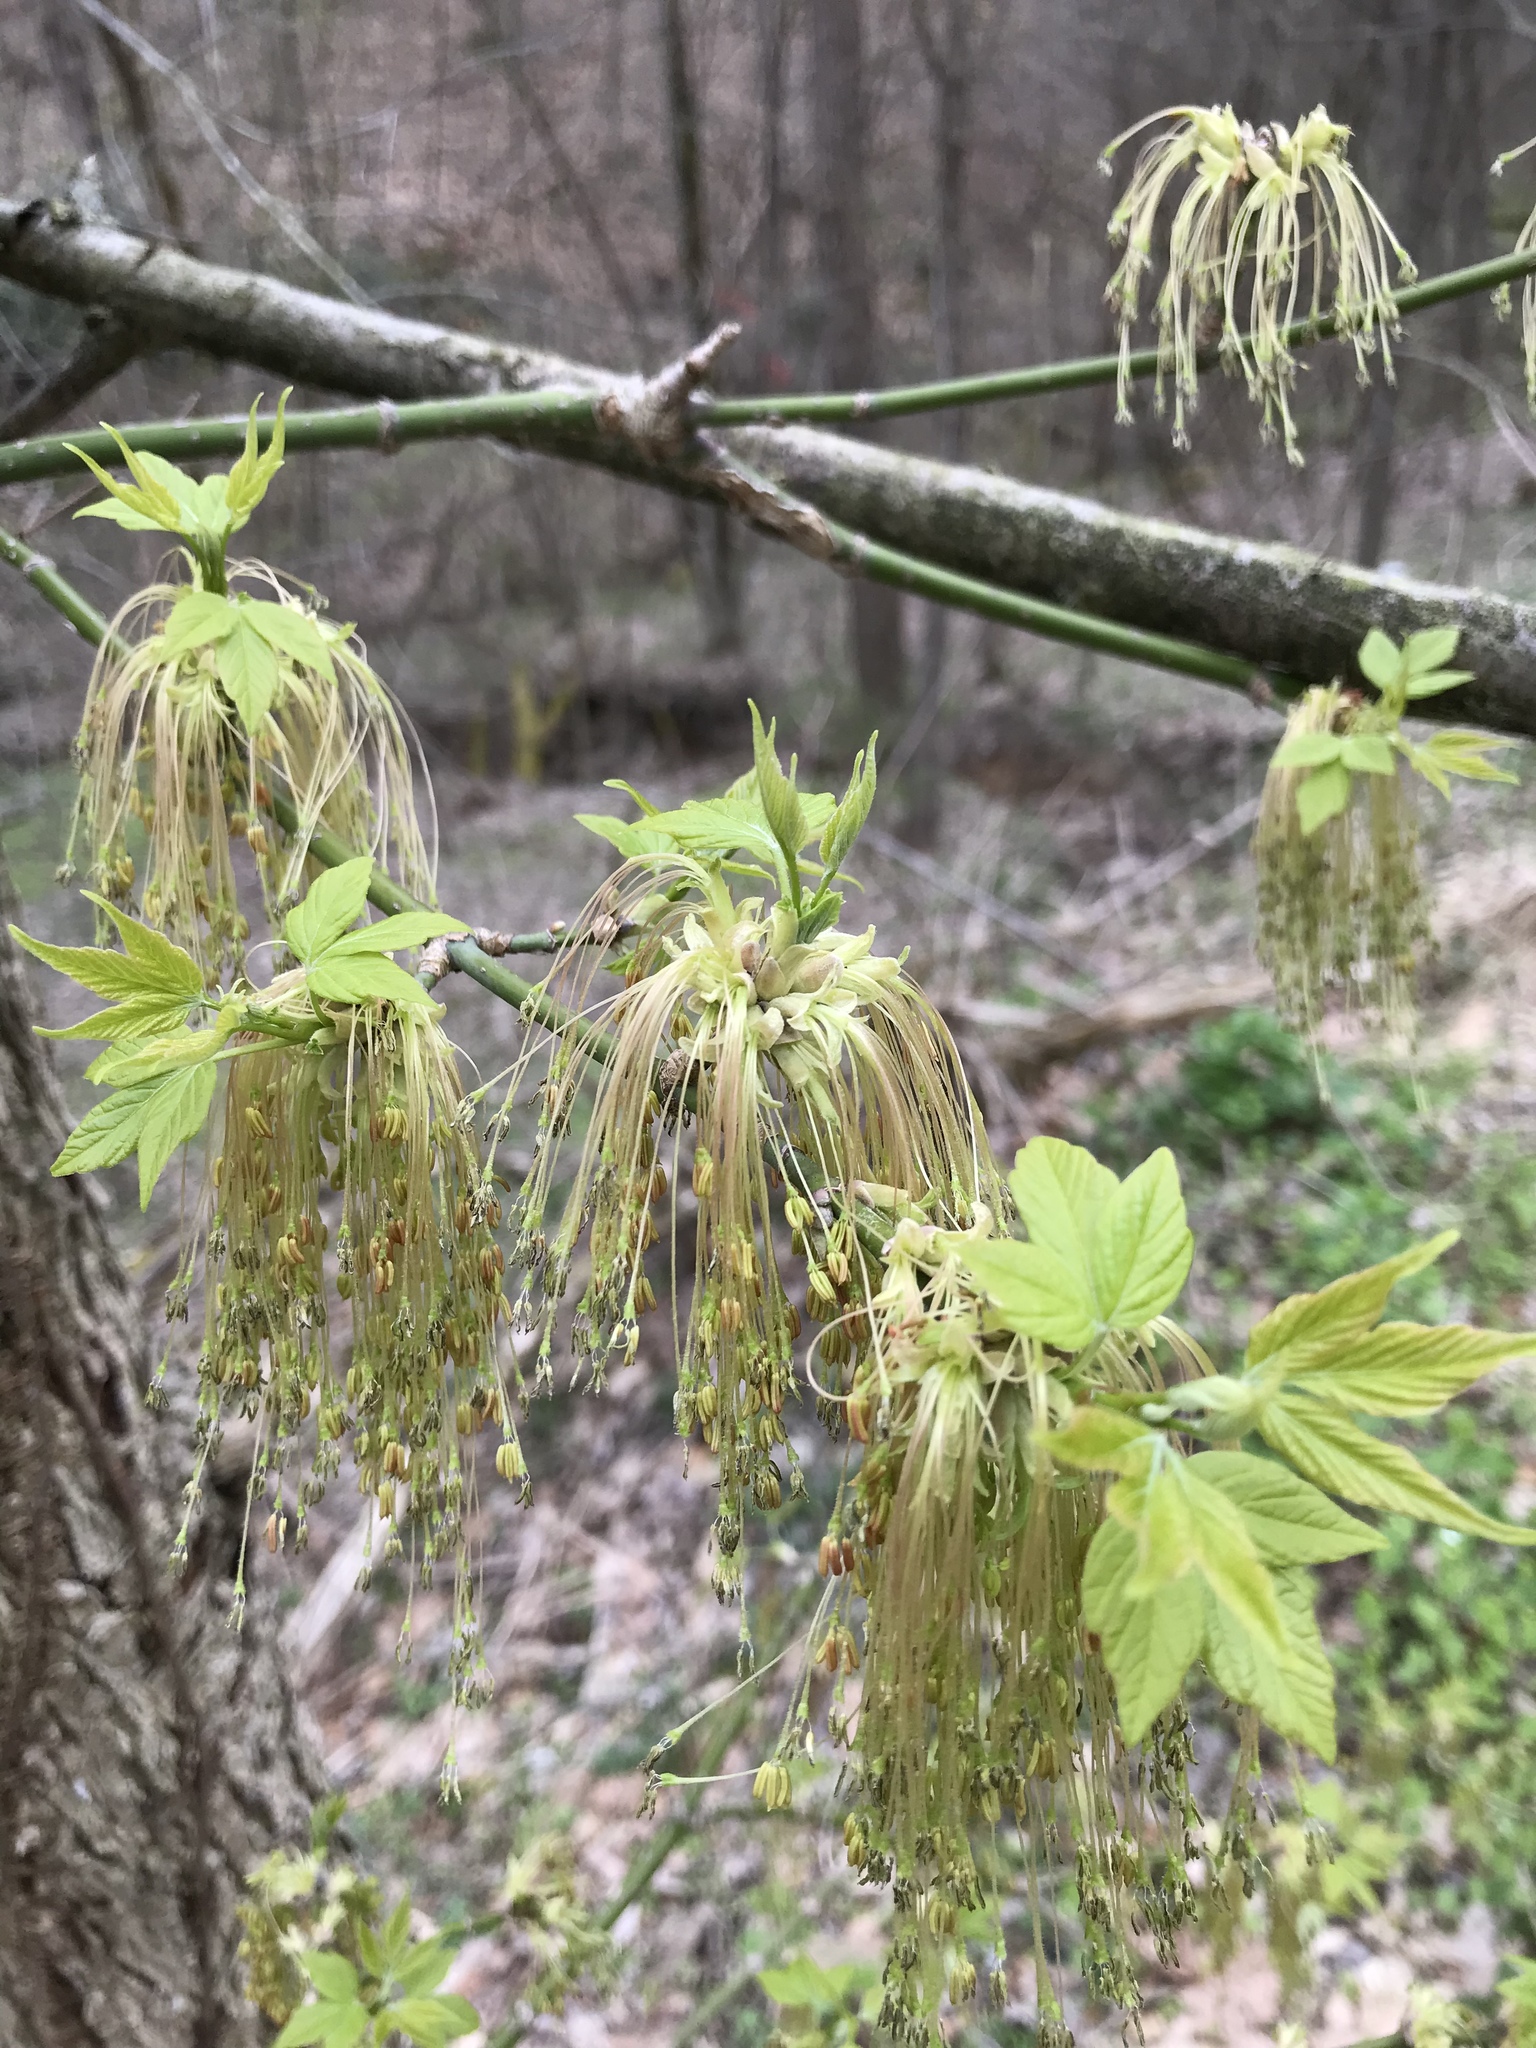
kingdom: Plantae
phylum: Tracheophyta
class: Magnoliopsida
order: Sapindales
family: Sapindaceae
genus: Acer
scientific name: Acer negundo
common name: Ashleaf maple
